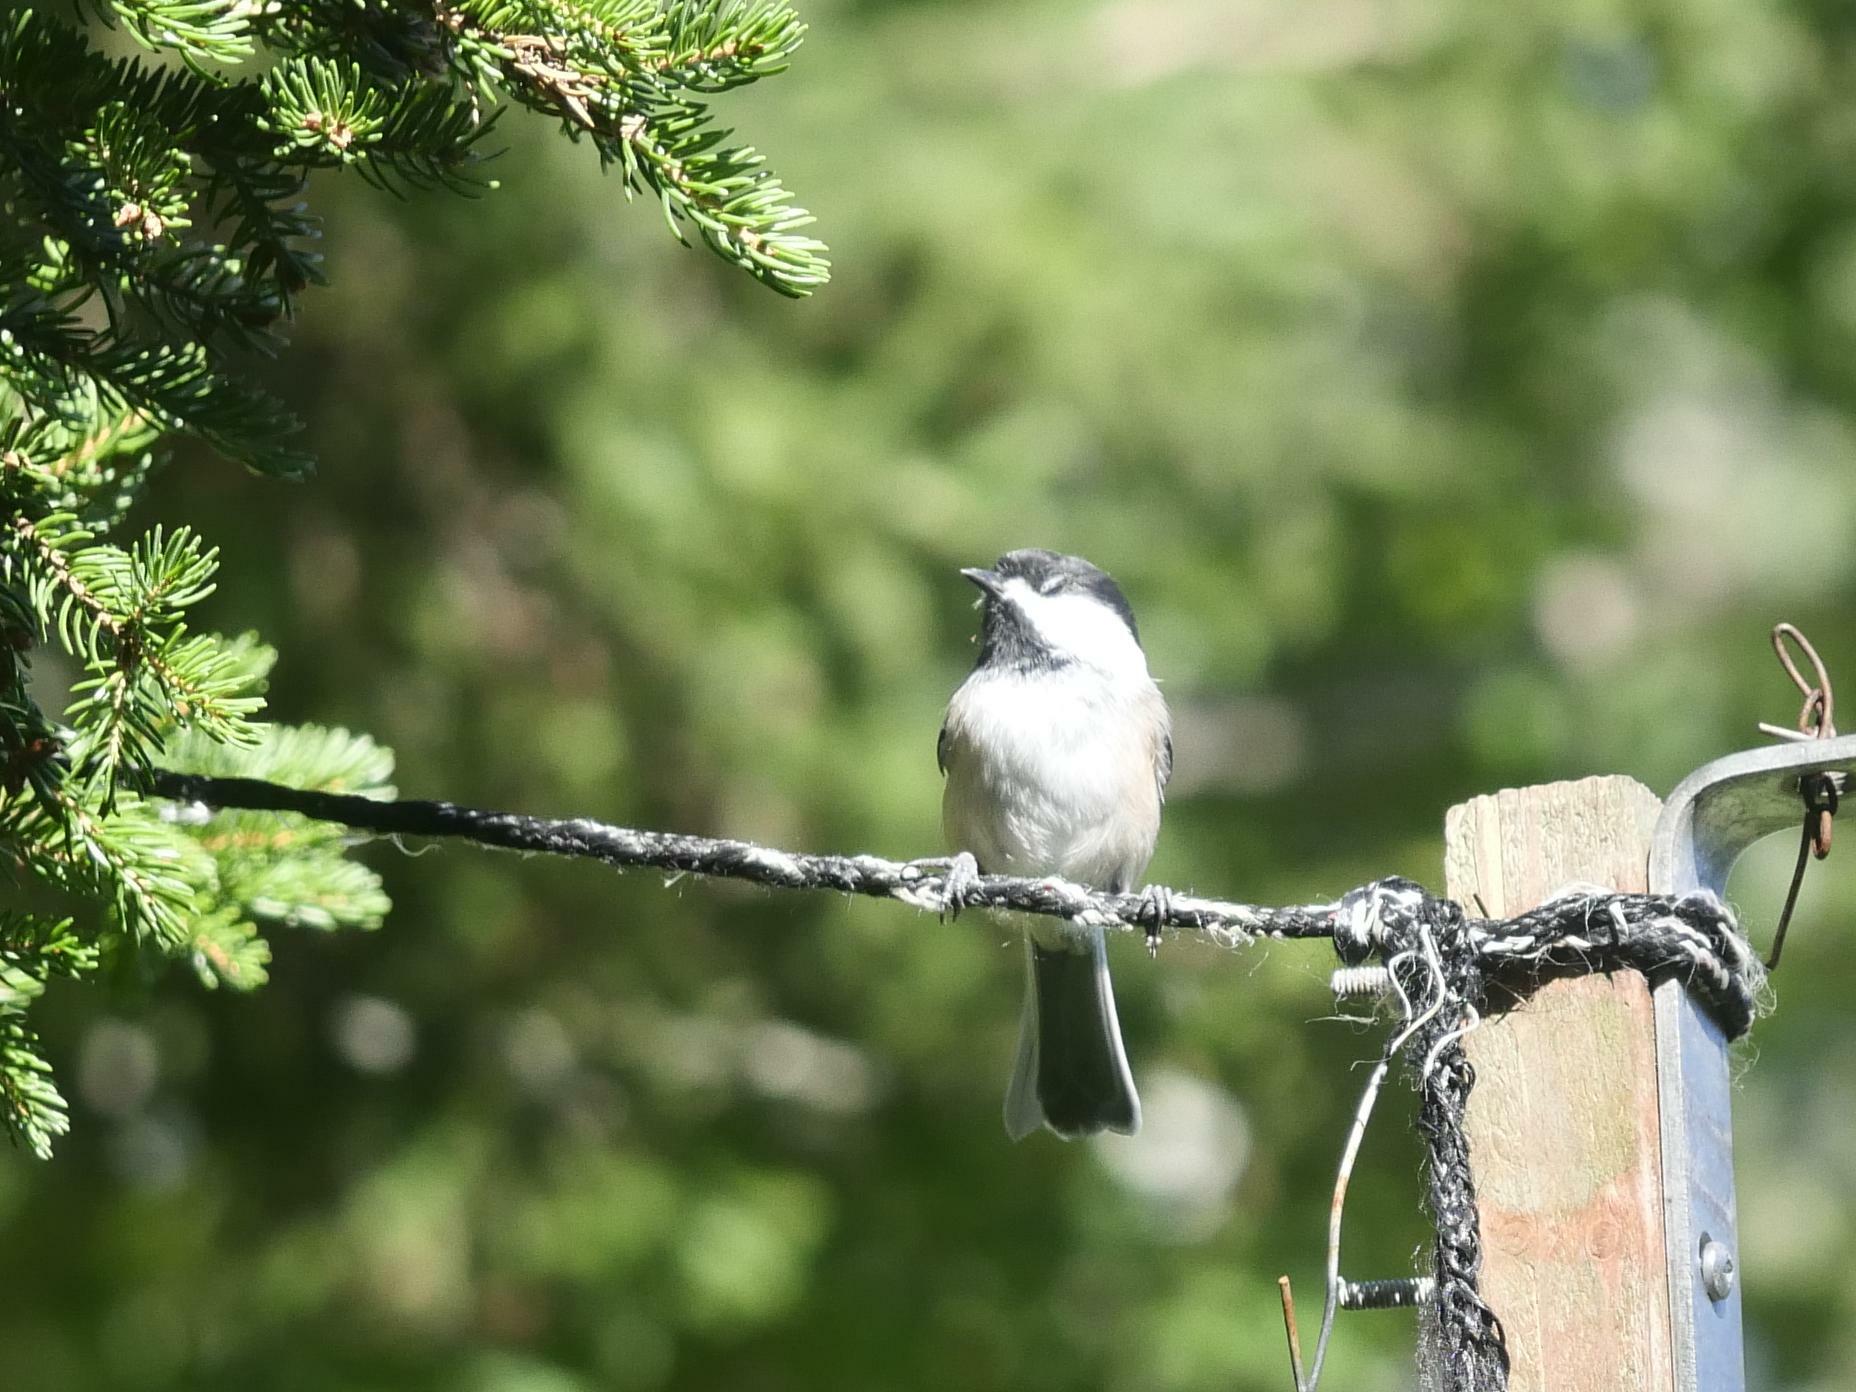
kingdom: Animalia
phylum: Chordata
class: Aves
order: Passeriformes
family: Paridae
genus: Poecile
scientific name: Poecile atricapillus
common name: Black-capped chickadee
